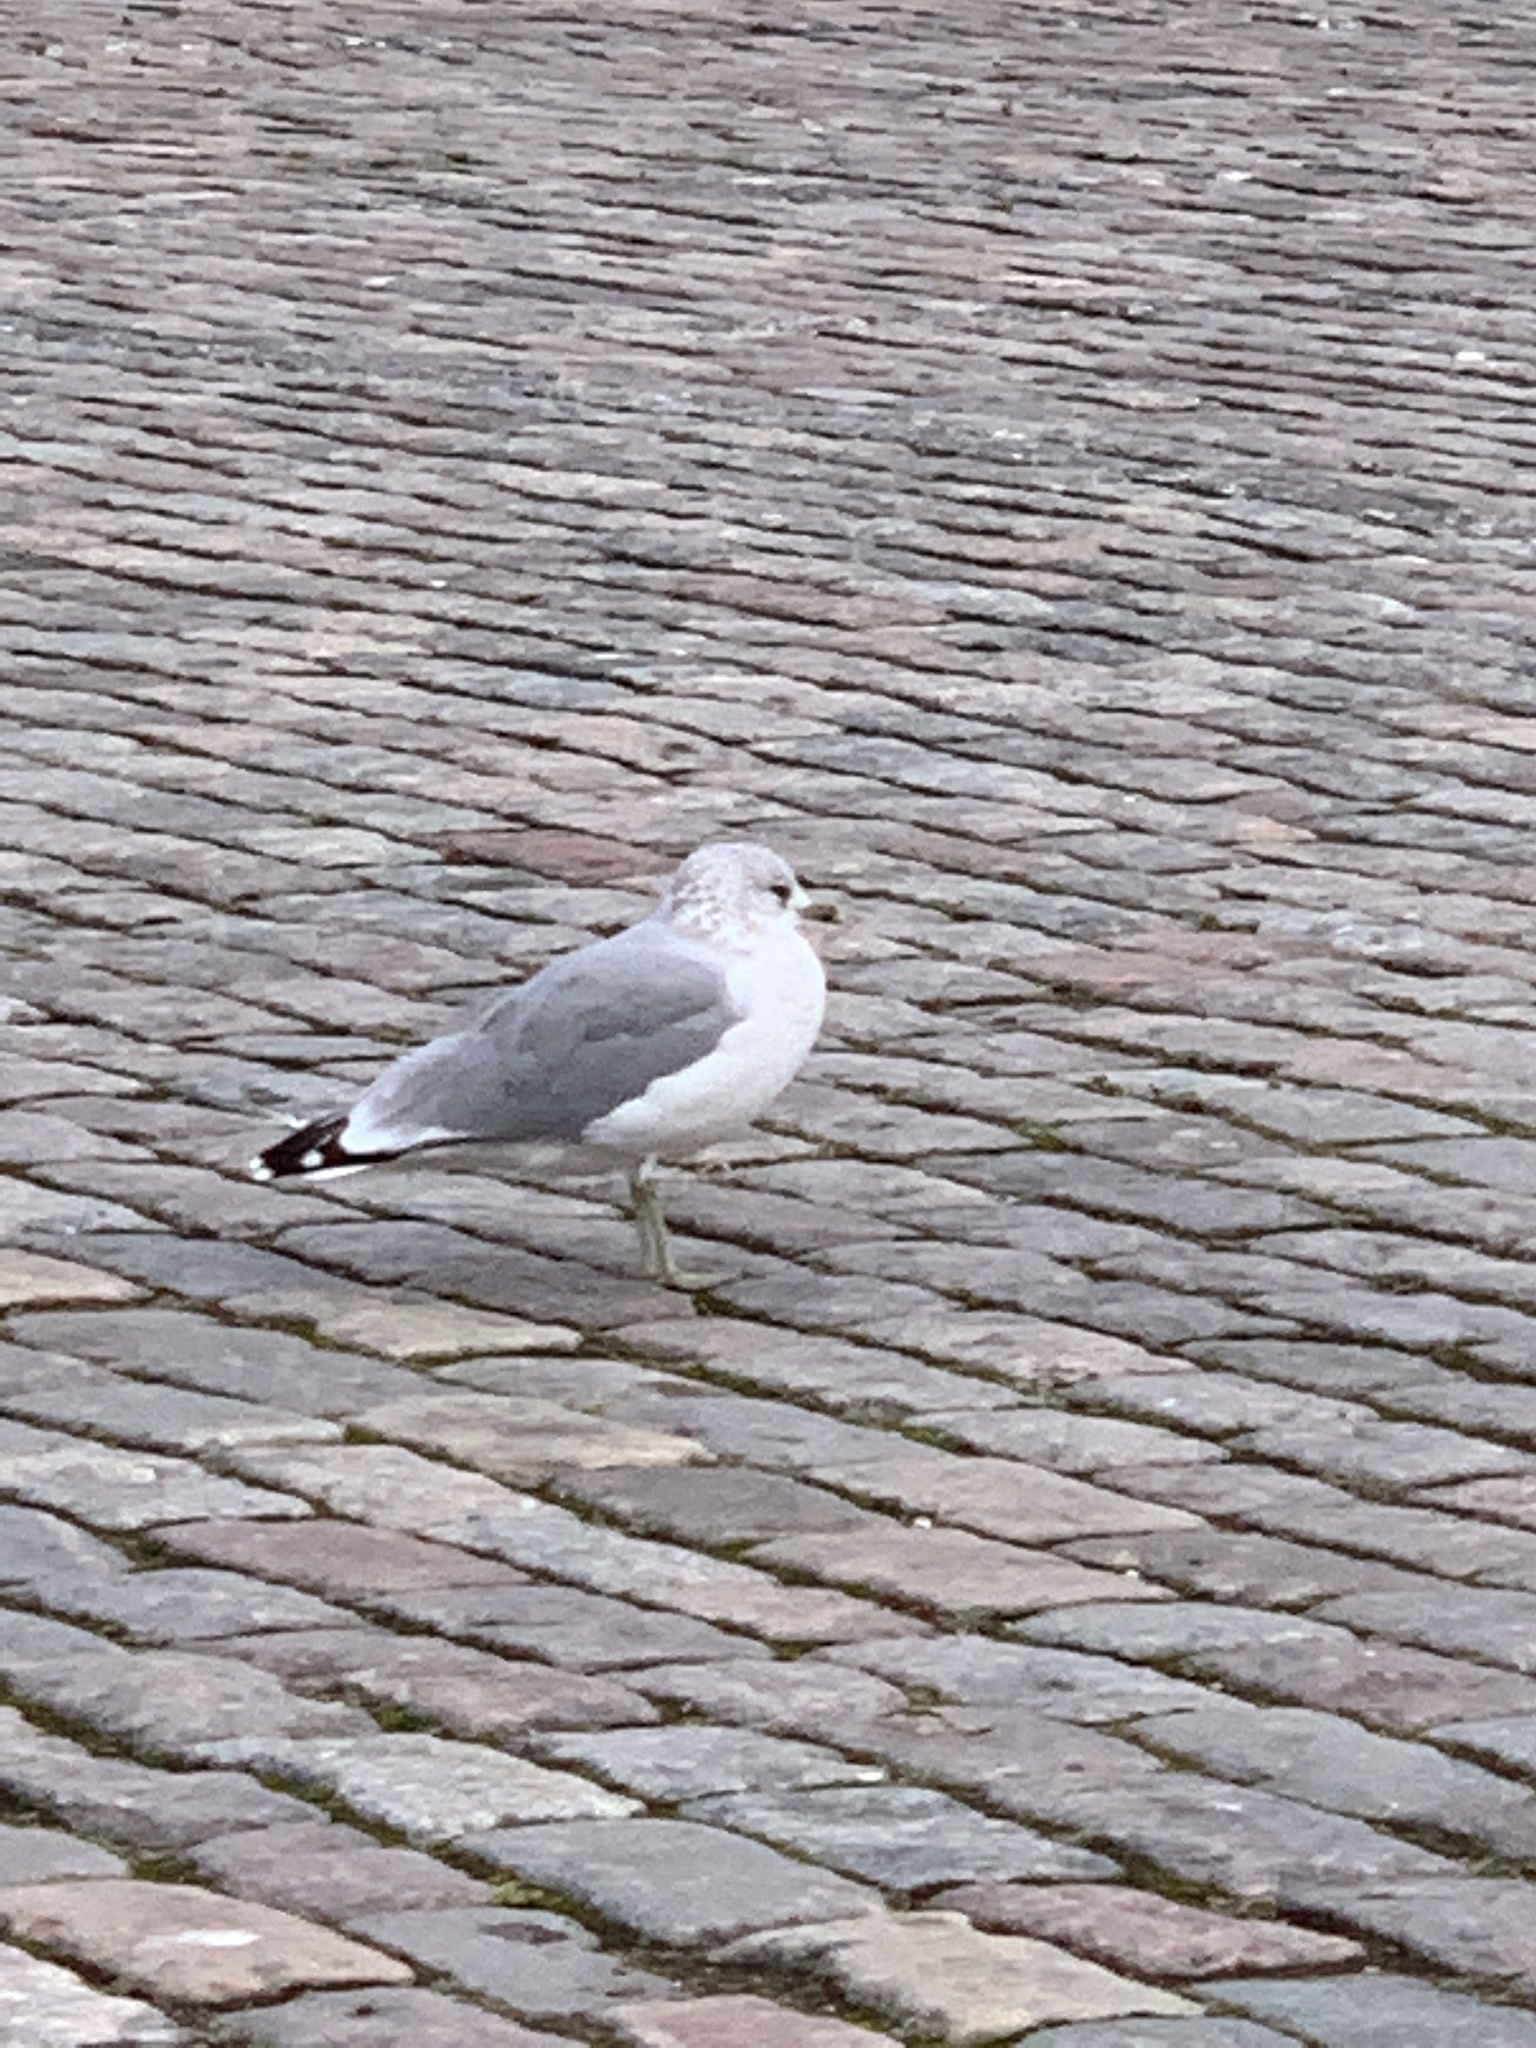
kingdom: Animalia
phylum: Chordata
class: Aves
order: Charadriiformes
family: Laridae
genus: Larus
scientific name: Larus canus
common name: Mew gull
